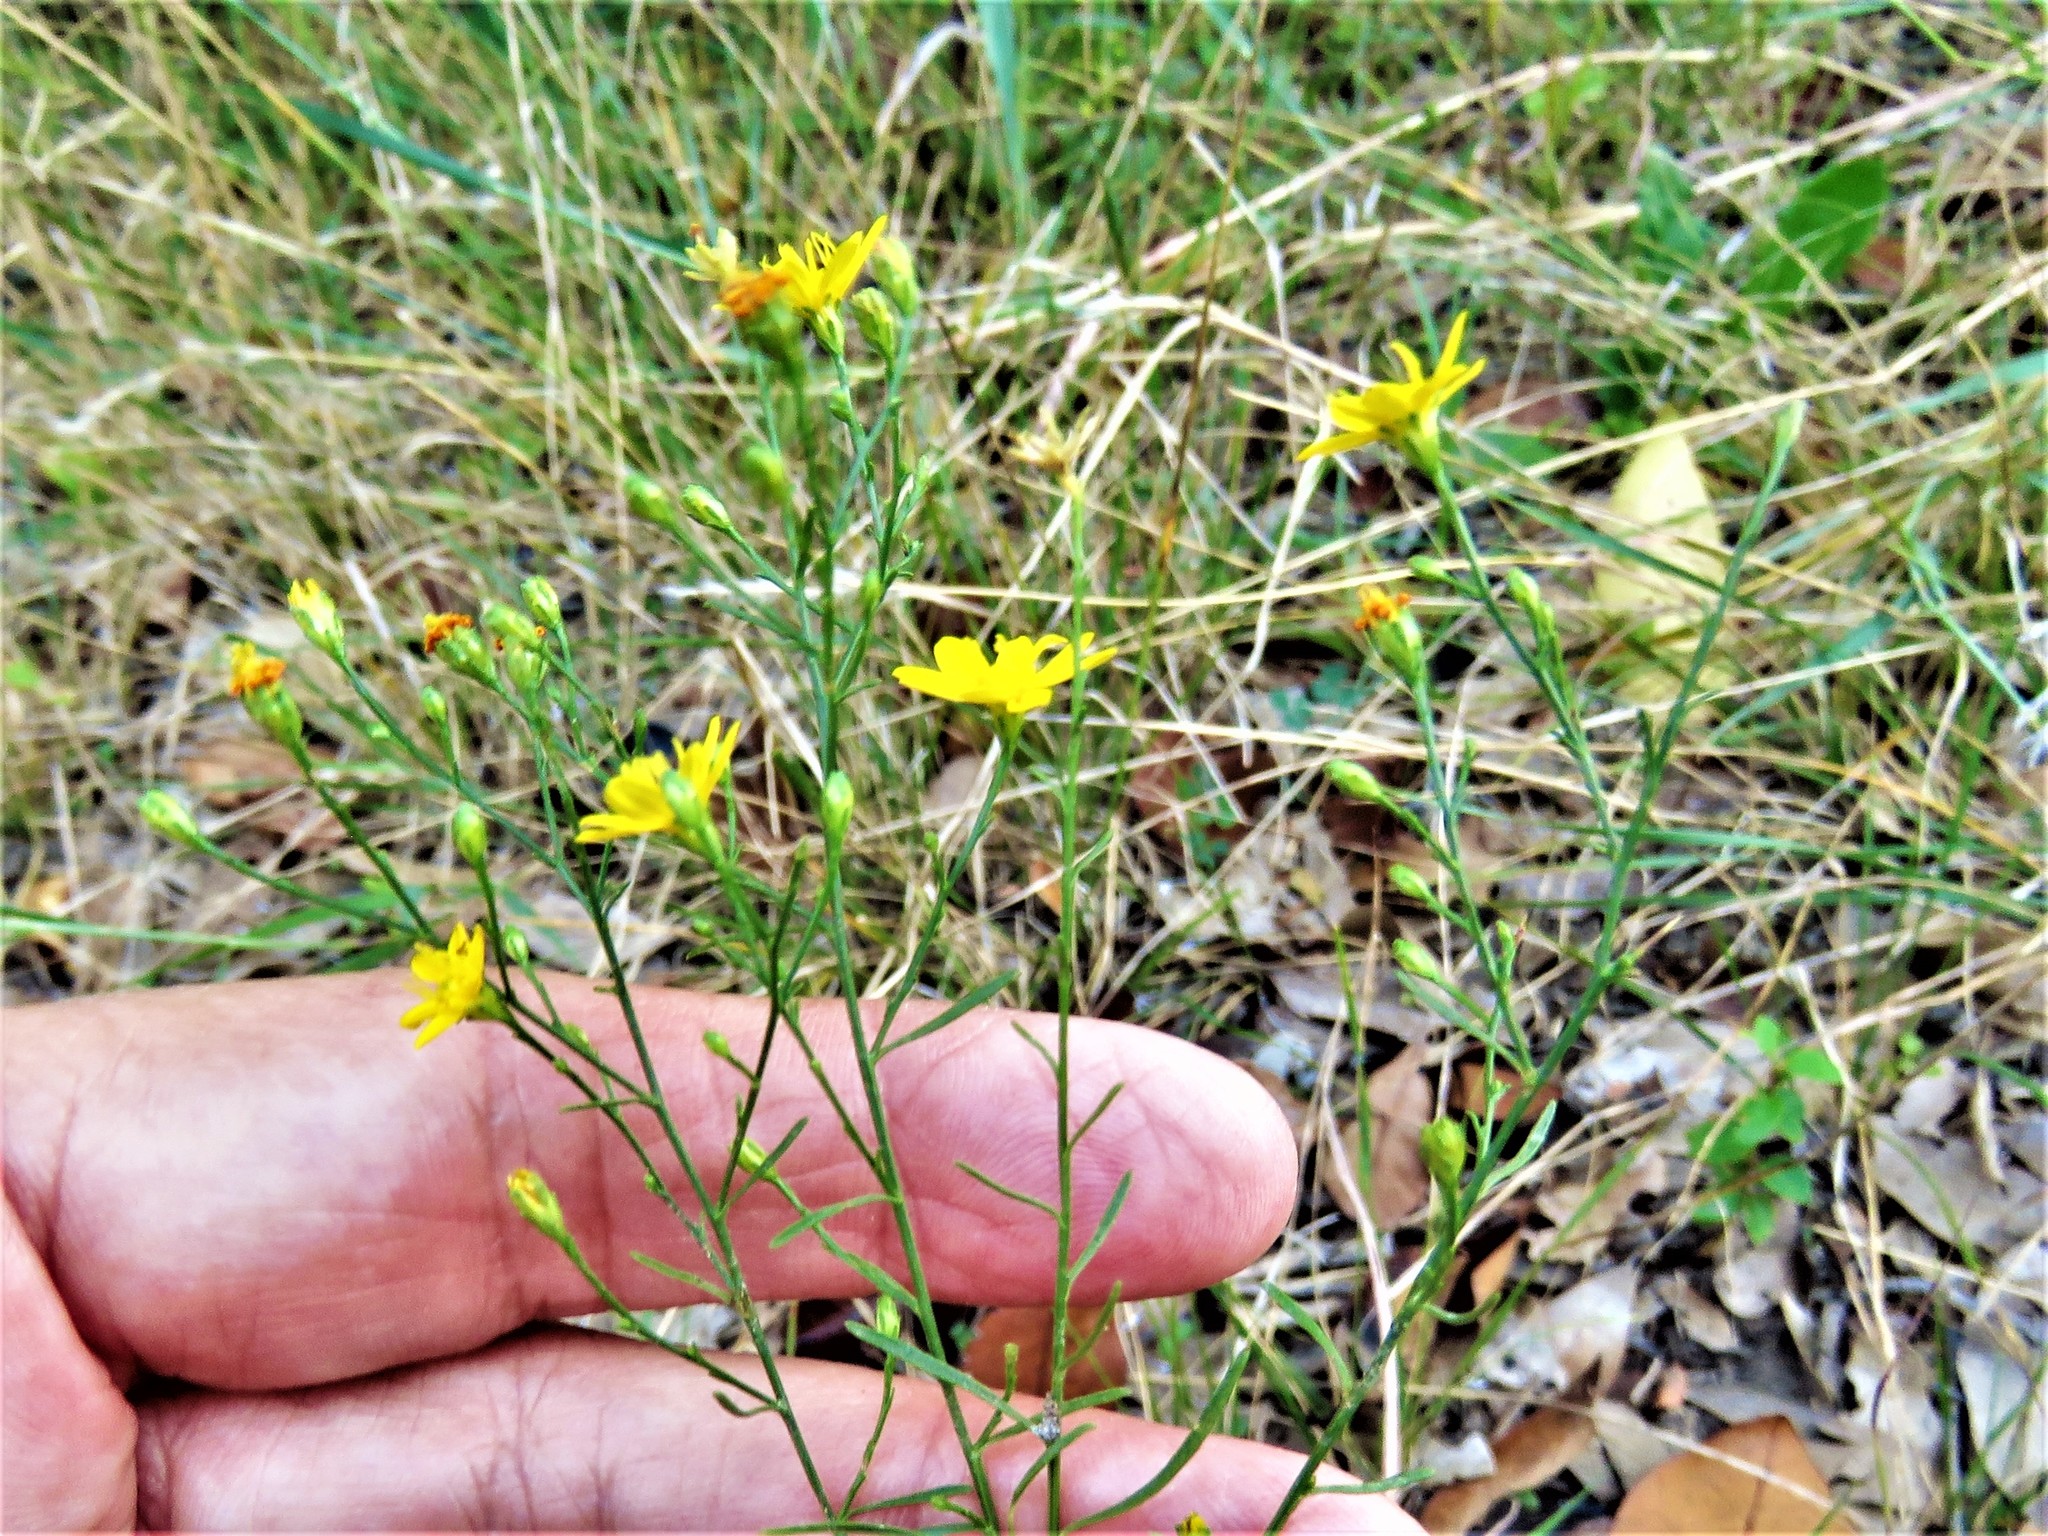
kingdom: Plantae
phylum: Tracheophyta
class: Magnoliopsida
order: Asterales
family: Asteraceae
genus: Gutierrezia
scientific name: Gutierrezia texana
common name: Texas snakeweed
